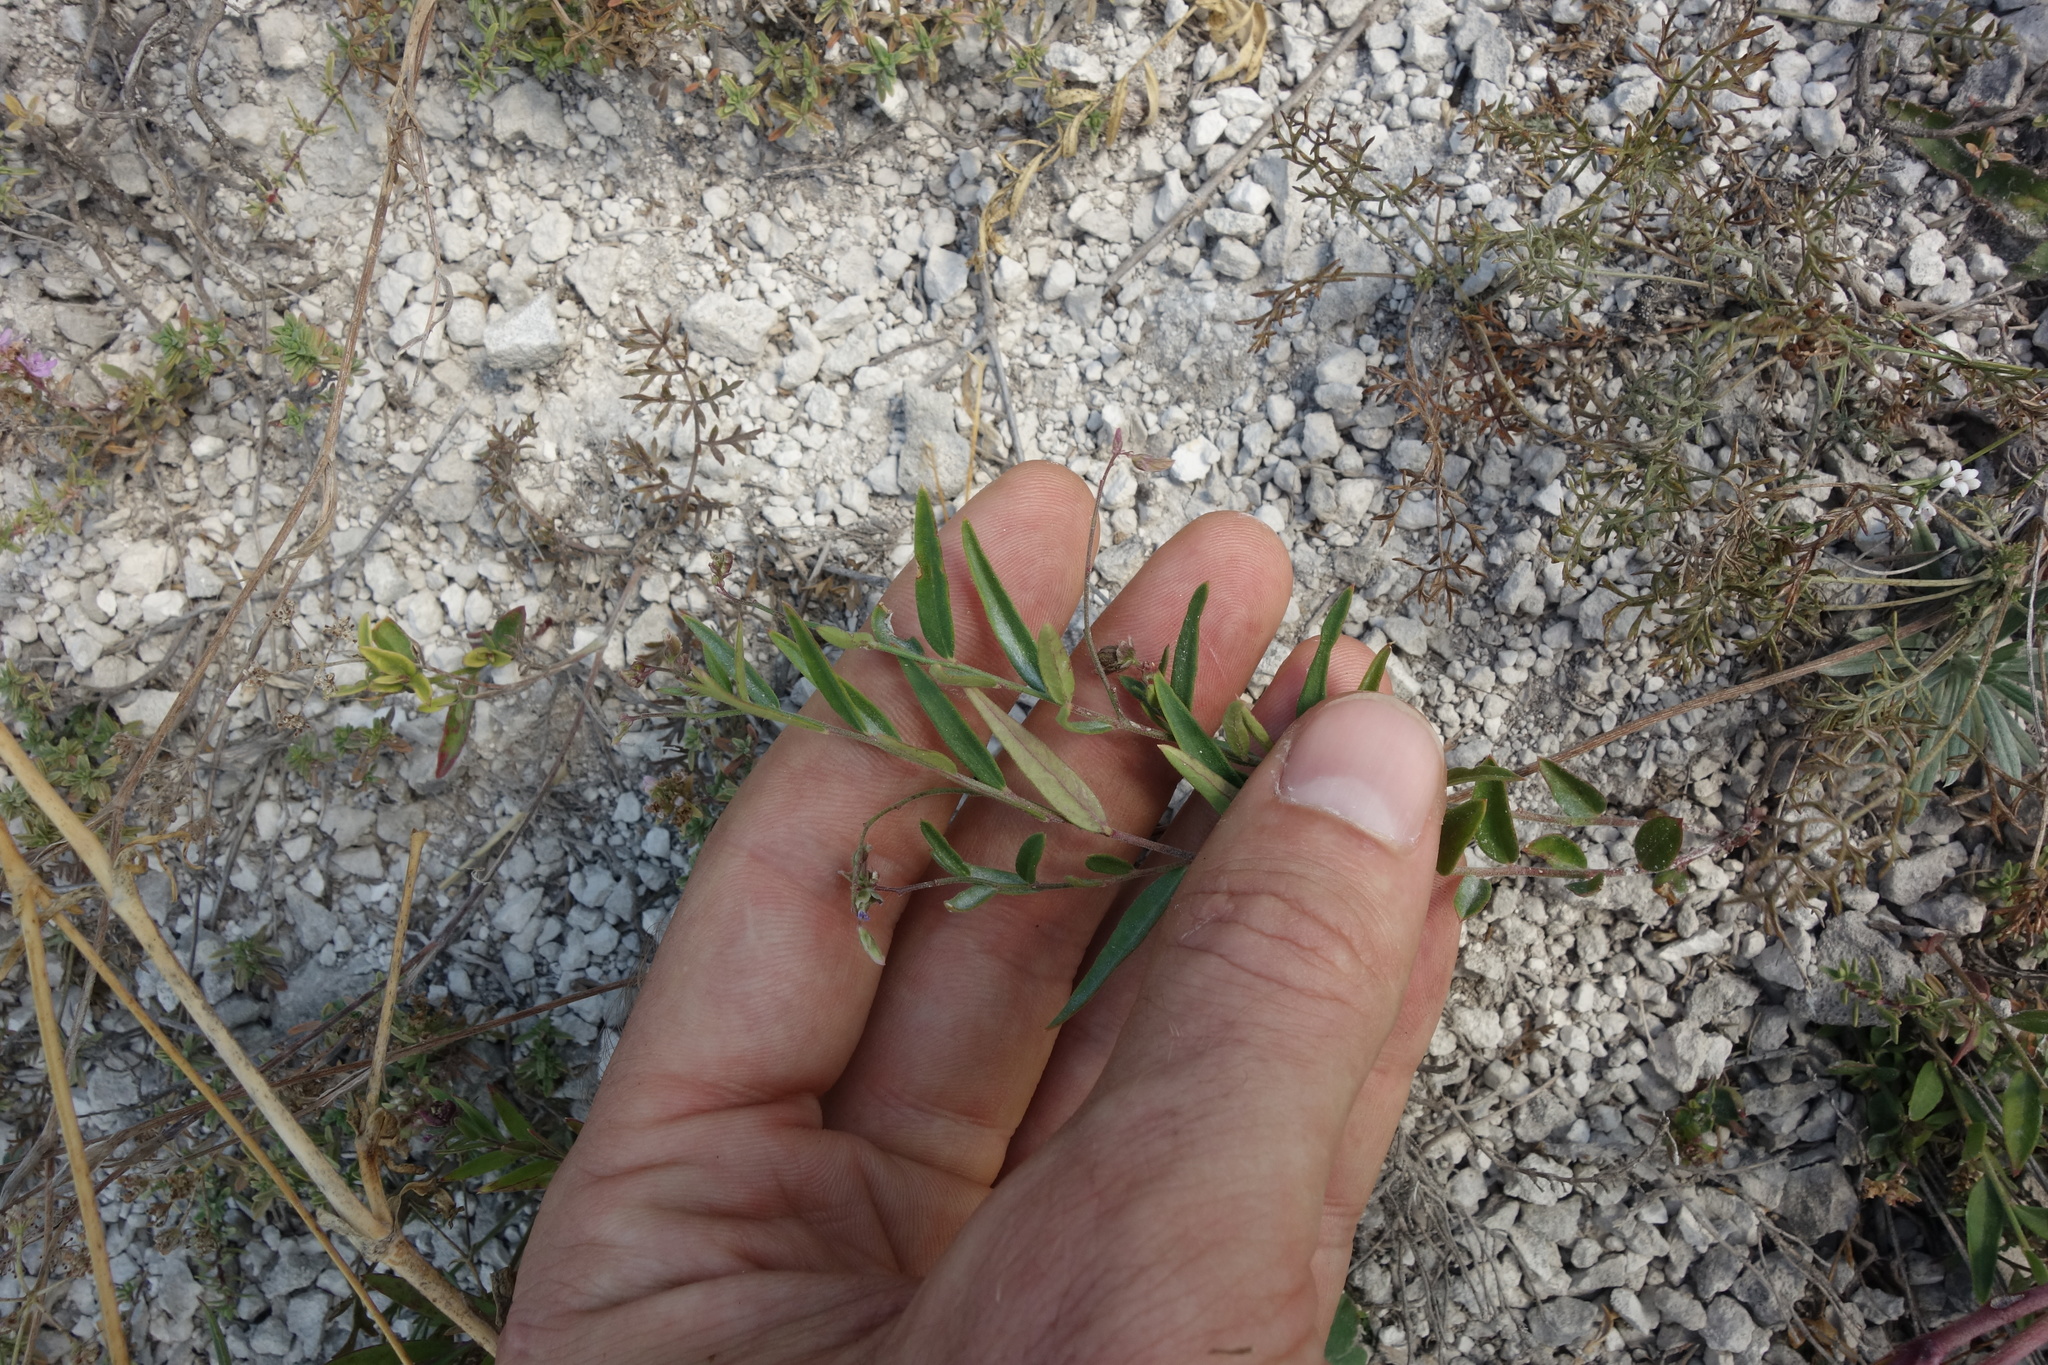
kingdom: Plantae
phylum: Tracheophyta
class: Magnoliopsida
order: Fabales
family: Polygalaceae
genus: Polygala
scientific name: Polygala sibirica
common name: Siberian polygala
